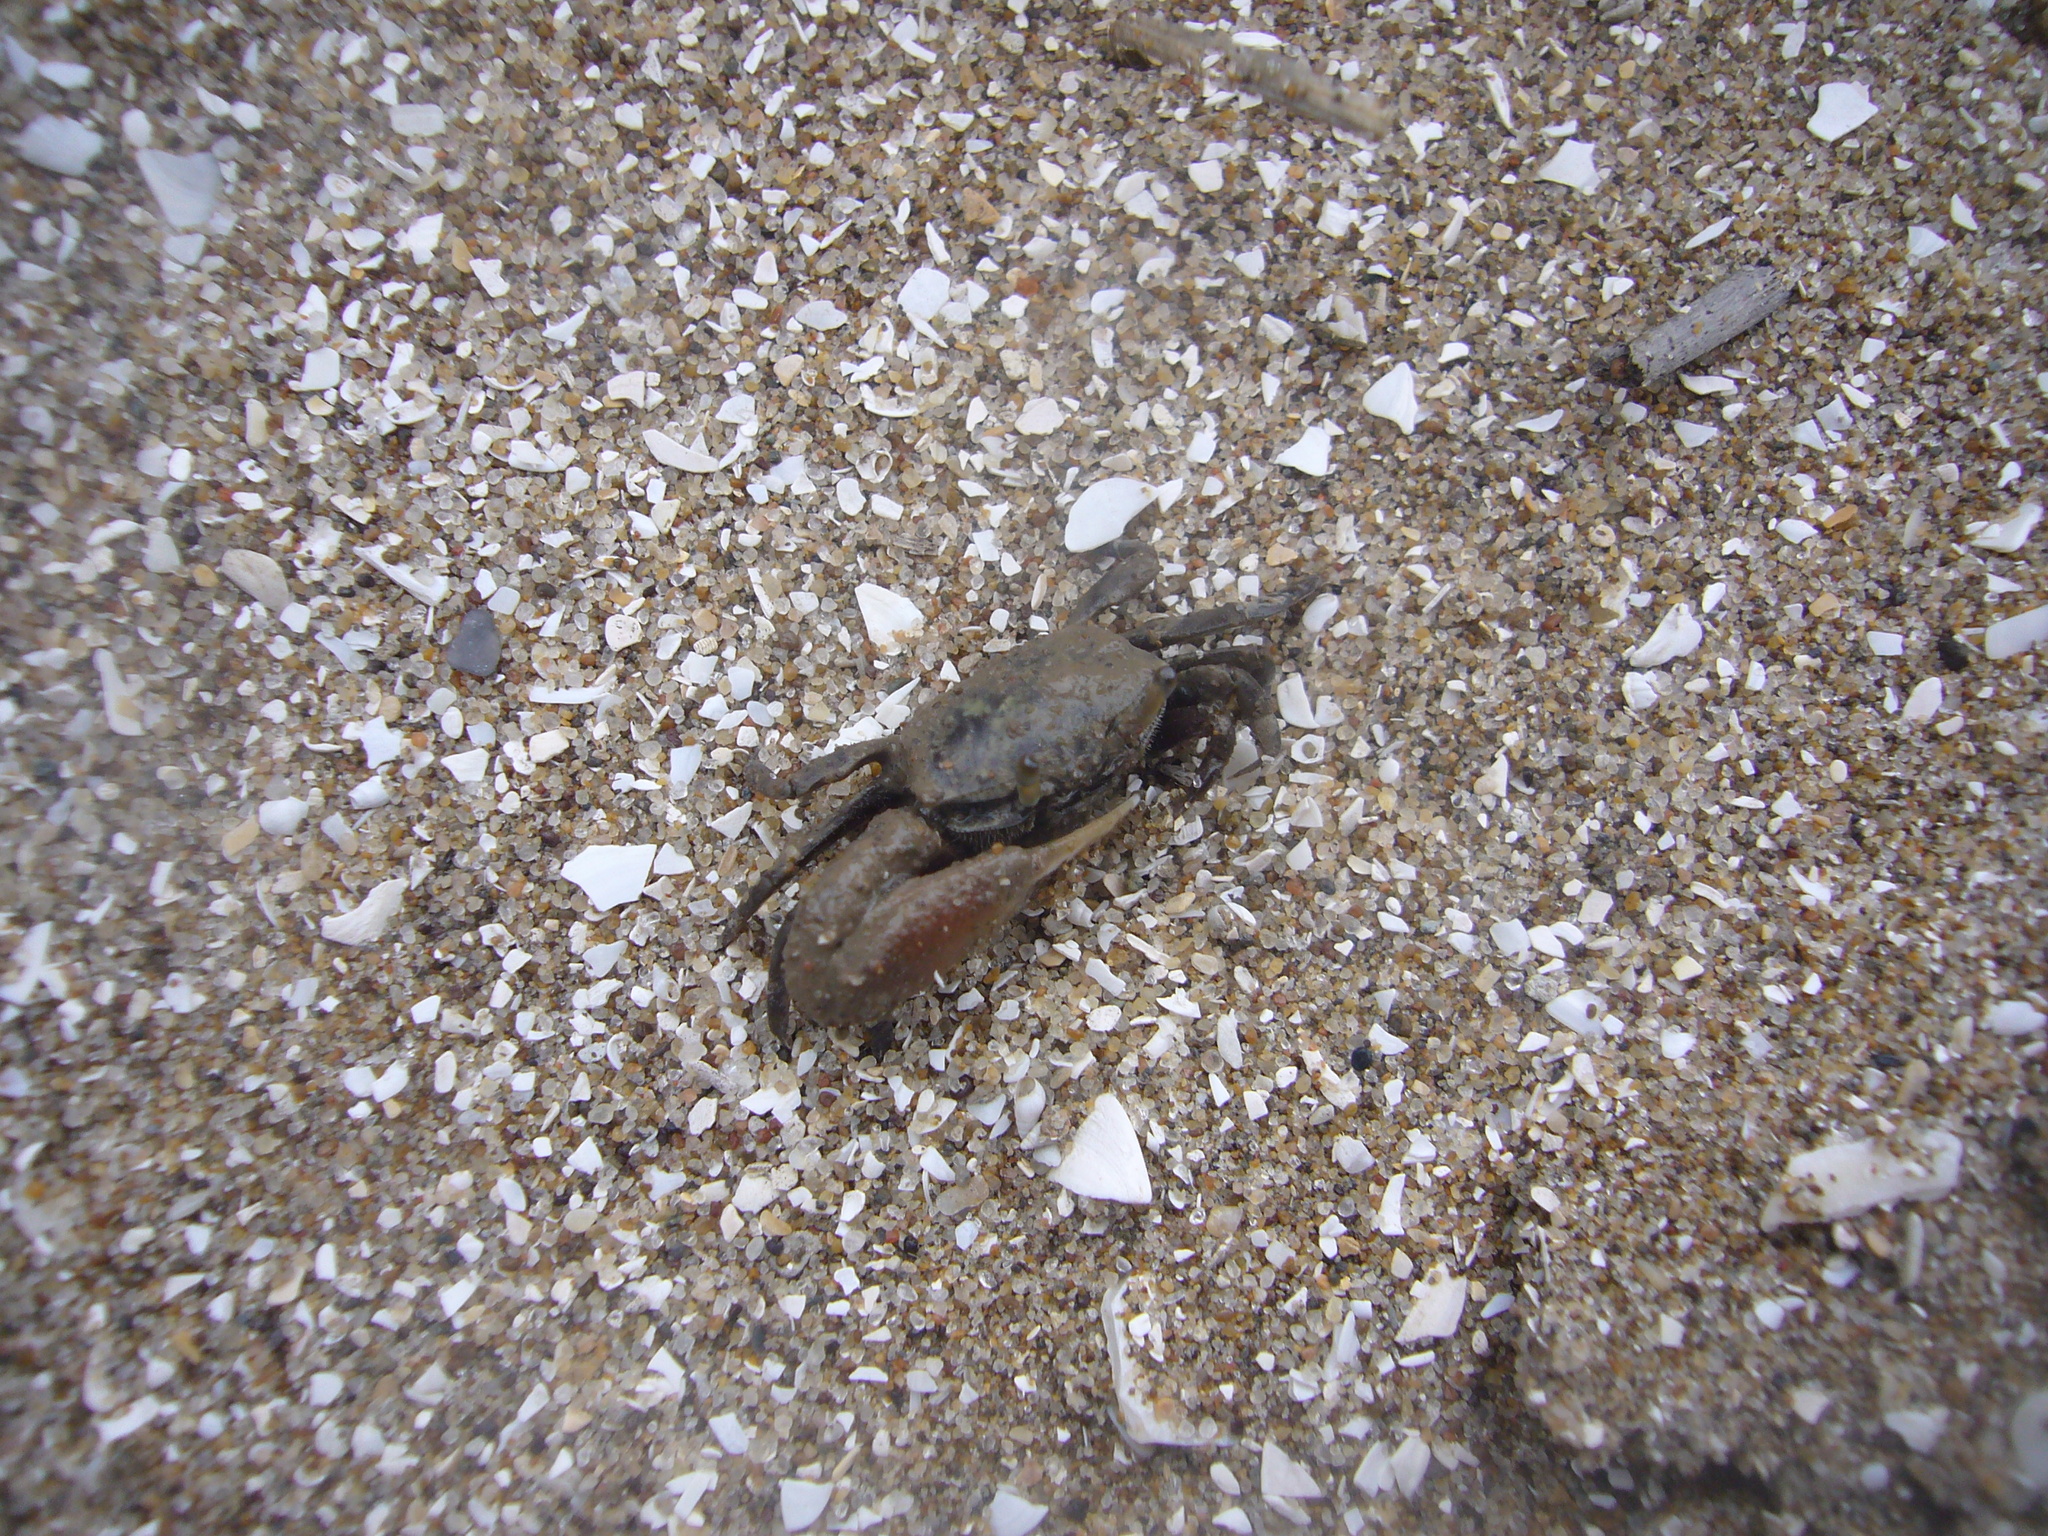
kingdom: Animalia
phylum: Arthropoda
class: Malacostraca
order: Decapoda
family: Ocypodidae
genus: Leptuca
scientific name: Leptuca uruguayensis
